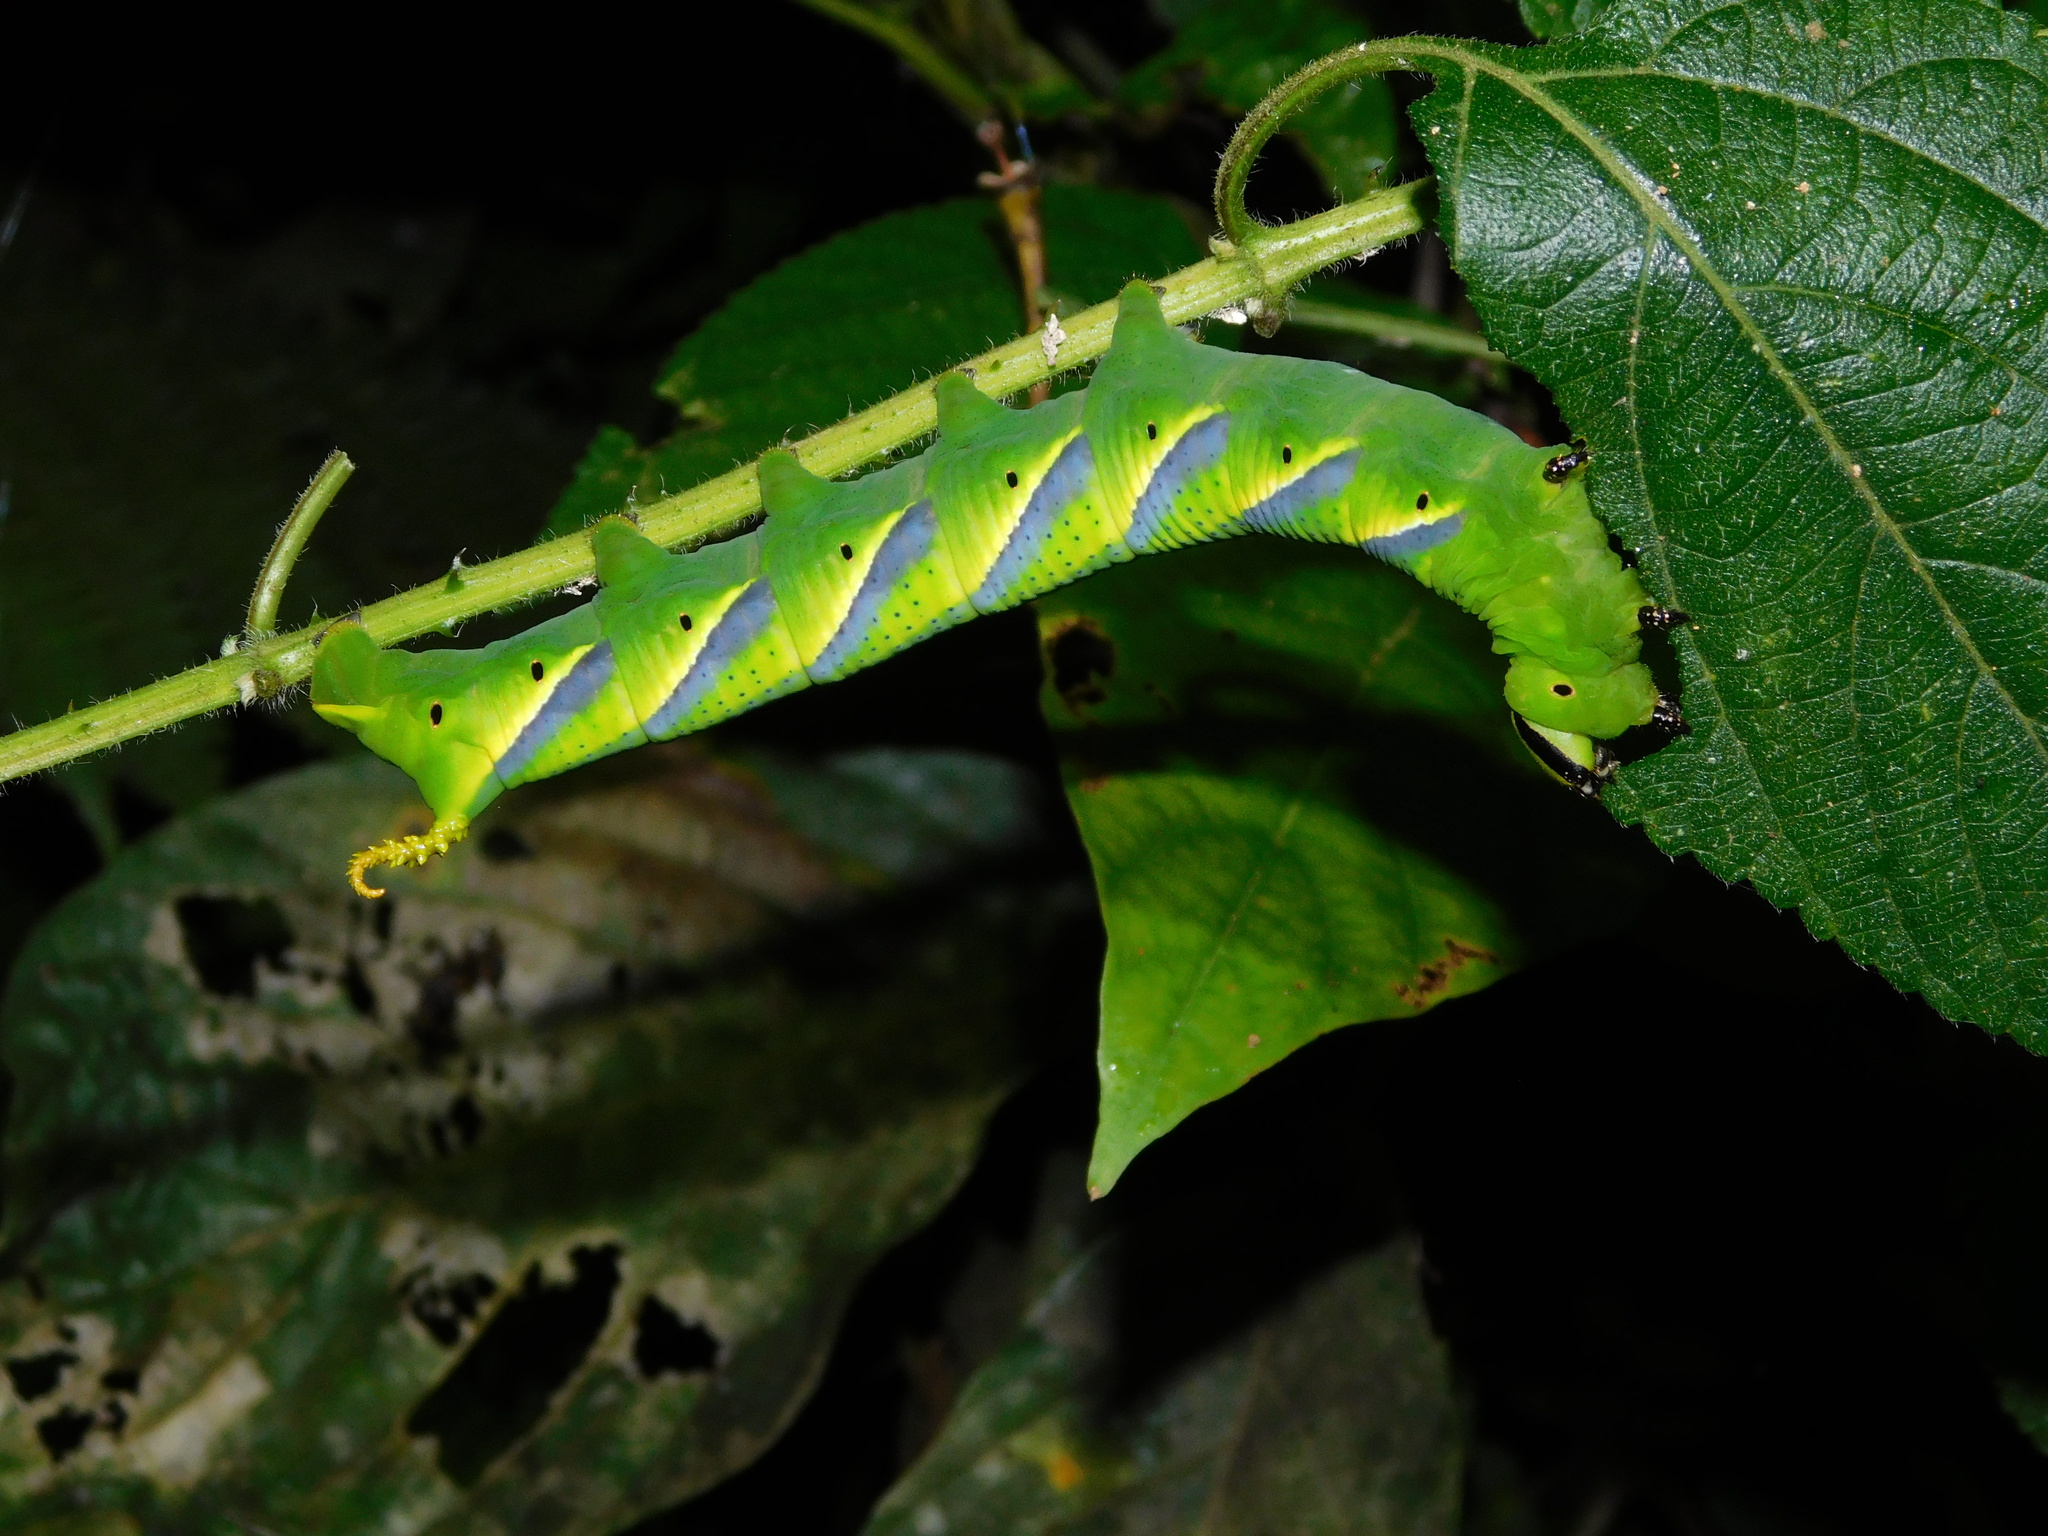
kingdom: Animalia
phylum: Arthropoda
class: Insecta
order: Lepidoptera
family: Sphingidae
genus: Acherontia
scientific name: Acherontia lachesis
